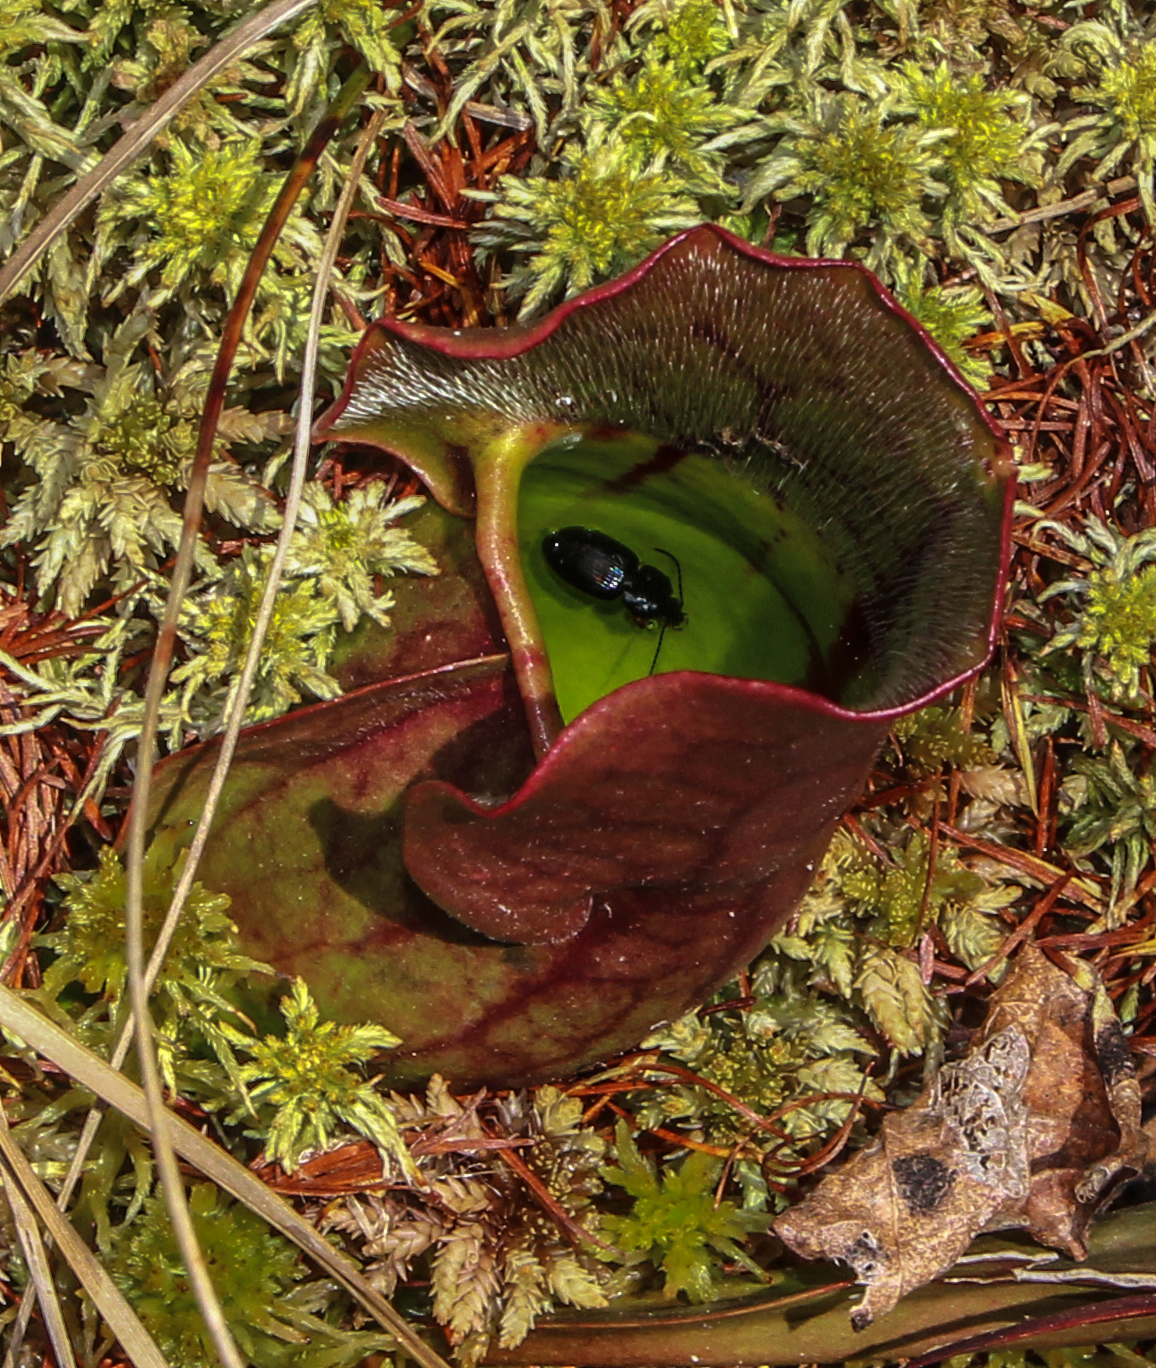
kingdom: Plantae
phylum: Tracheophyta
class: Magnoliopsida
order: Ericales
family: Sarraceniaceae
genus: Sarracenia
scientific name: Sarracenia purpurea
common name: Pitcherplant
